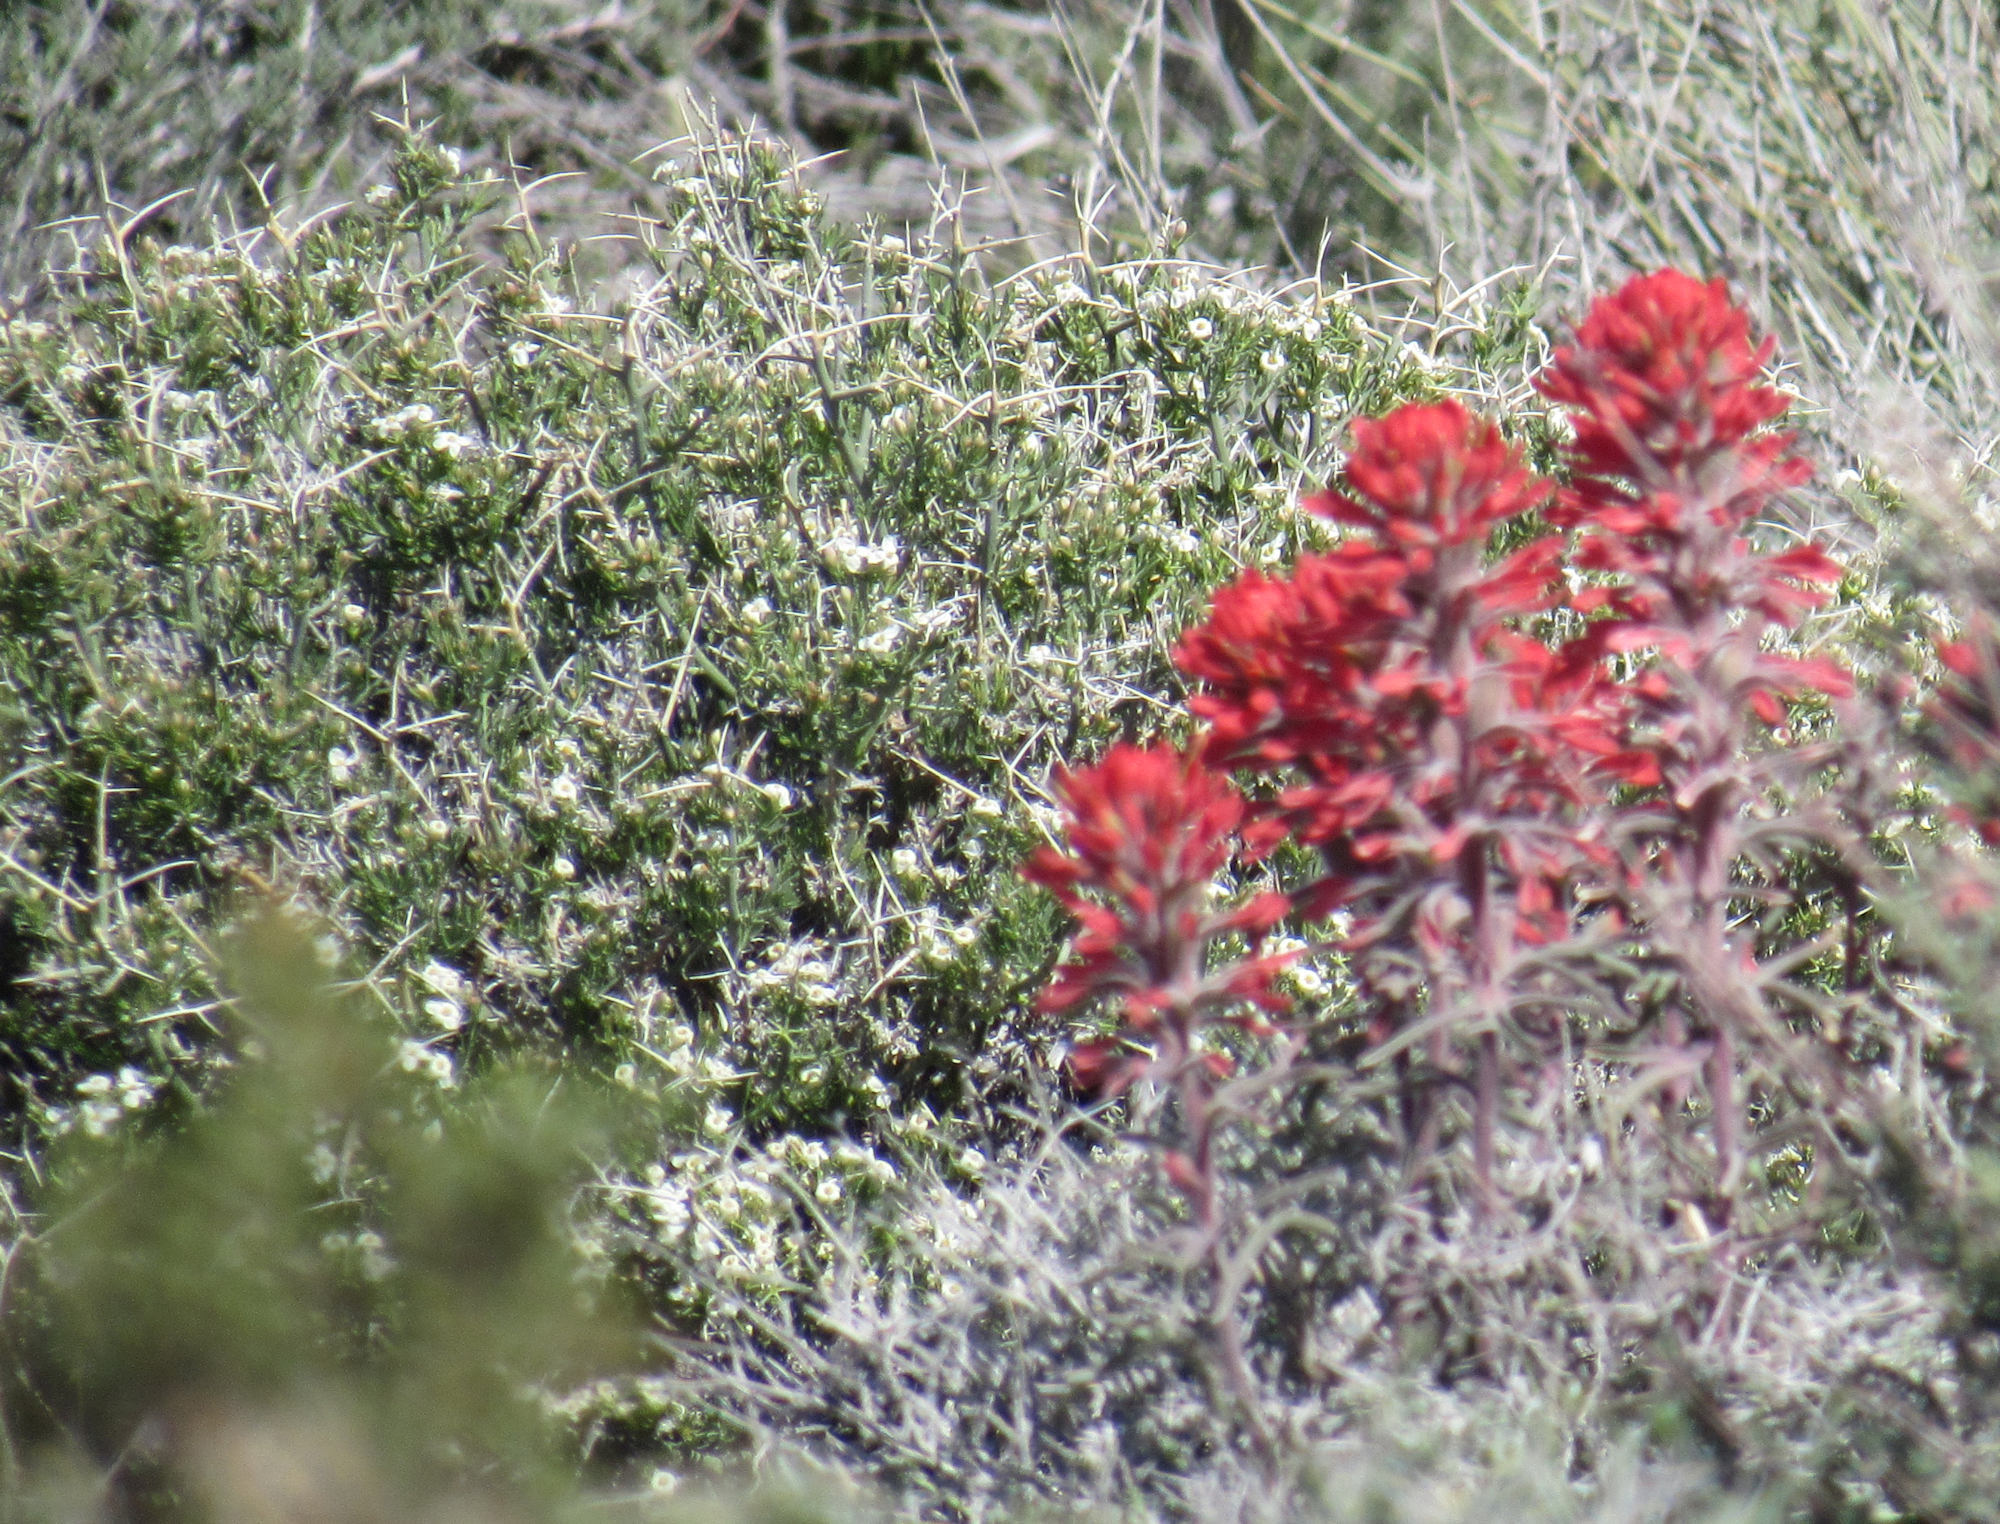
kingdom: Plantae
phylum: Tracheophyta
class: Magnoliopsida
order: Lamiales
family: Orobanchaceae
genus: Castilleja
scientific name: Castilleja chromosa
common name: Desert paintbrush
